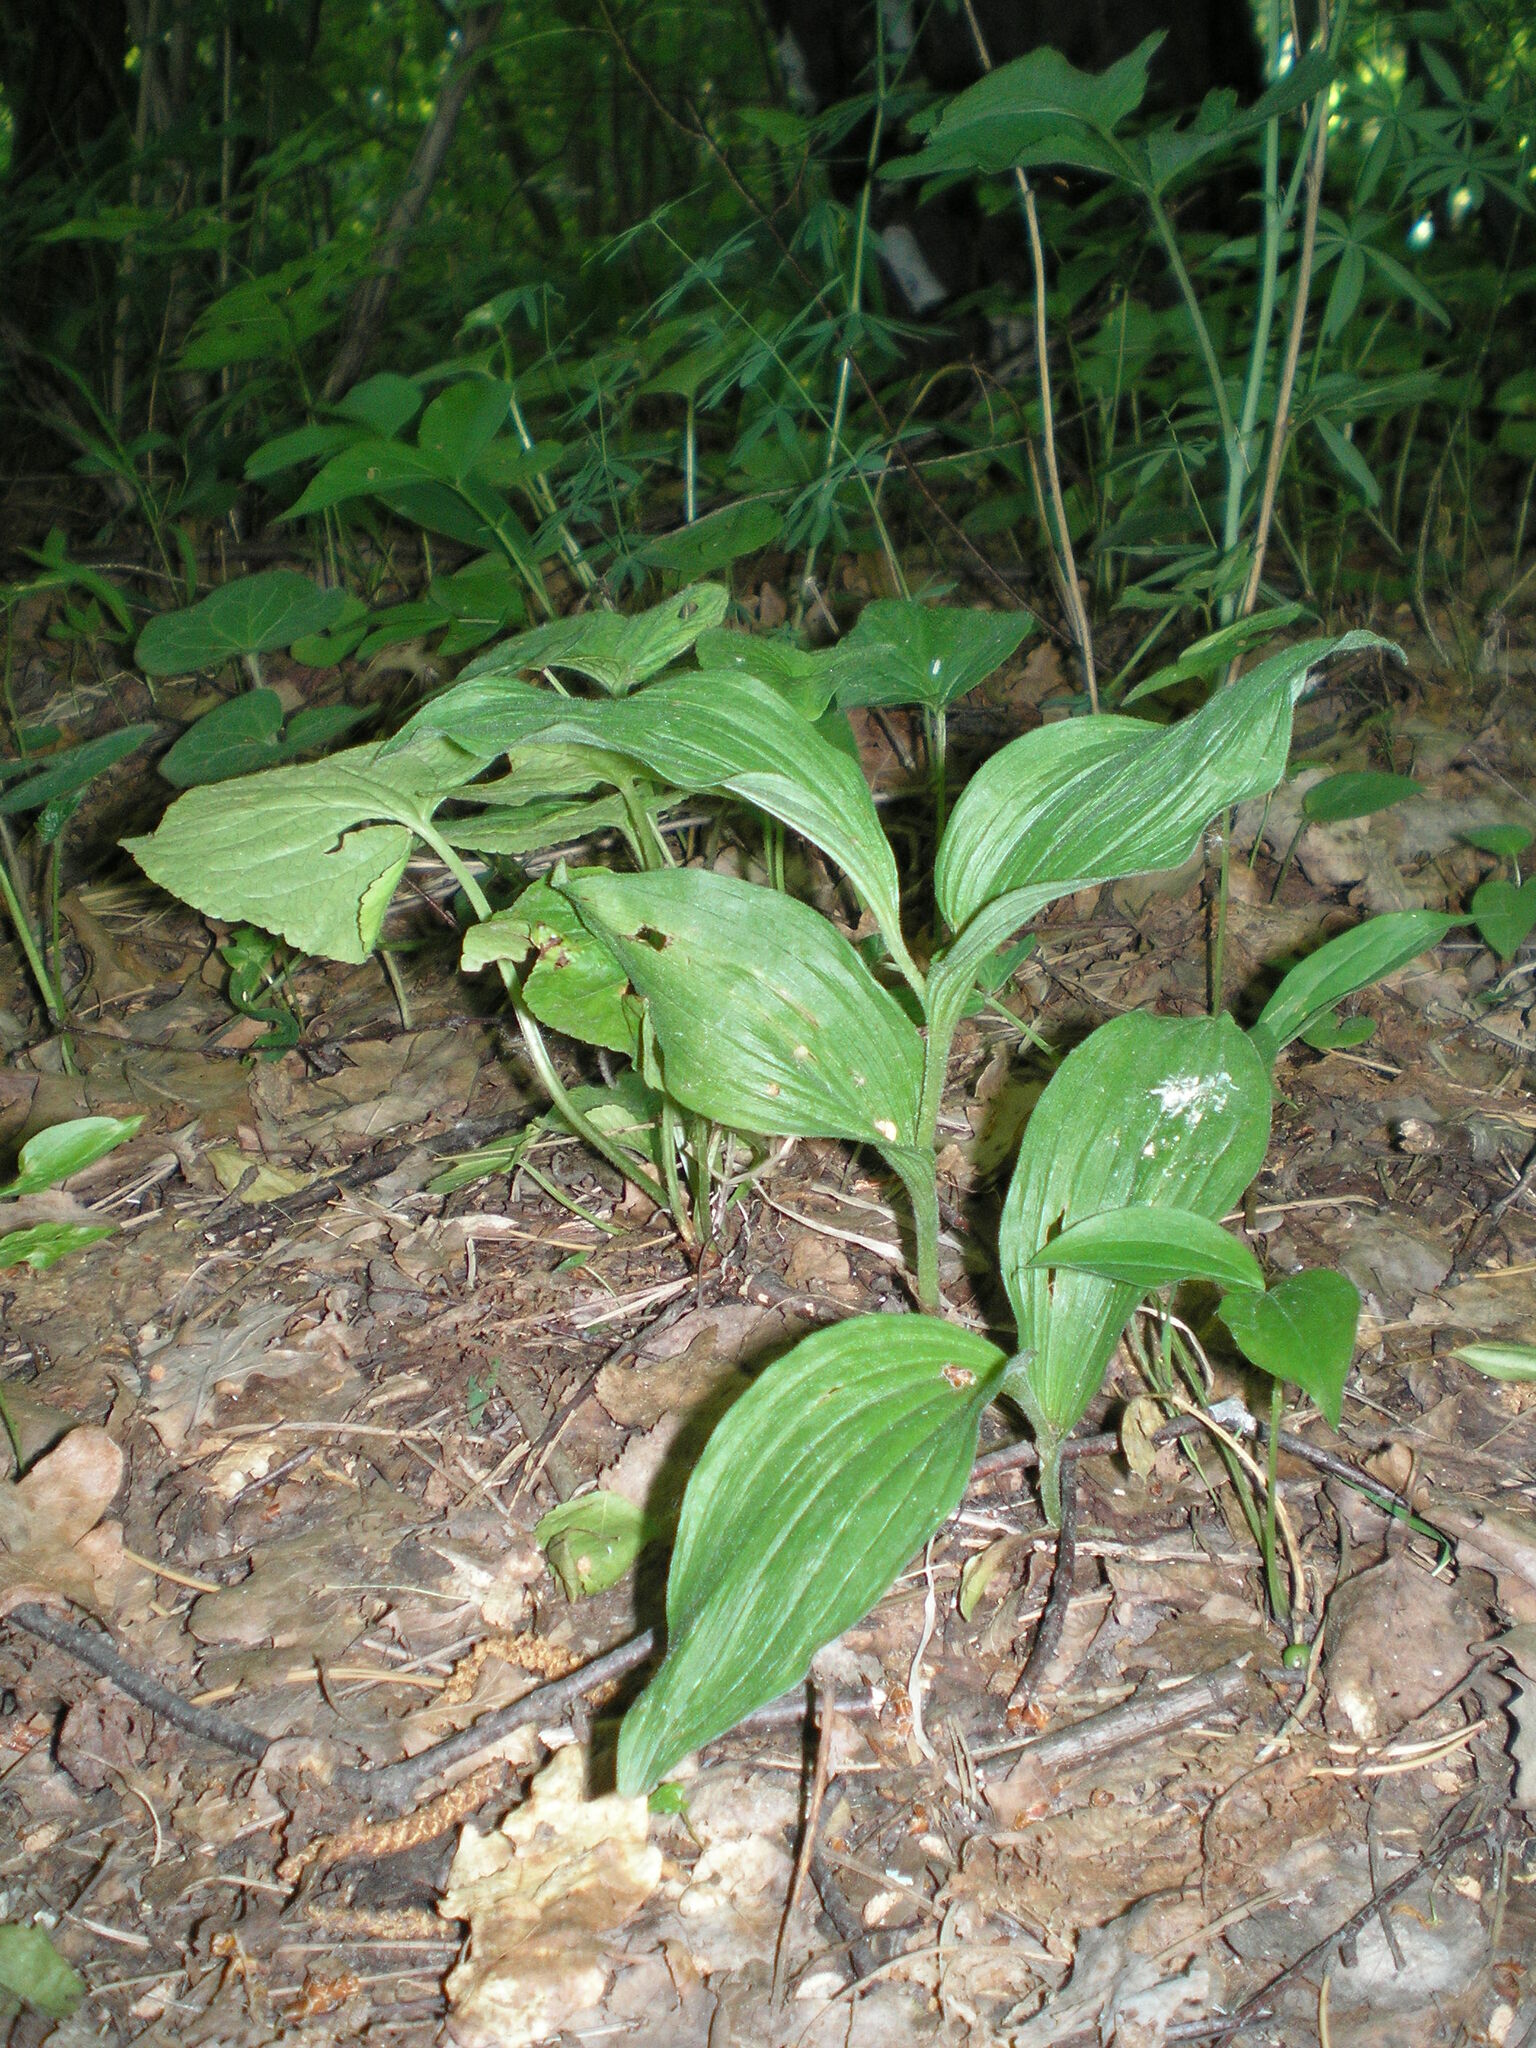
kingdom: Plantae
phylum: Tracheophyta
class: Liliopsida
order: Asparagales
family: Orchidaceae
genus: Cypripedium
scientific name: Cypripedium calceolus
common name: Lady's-slipper
